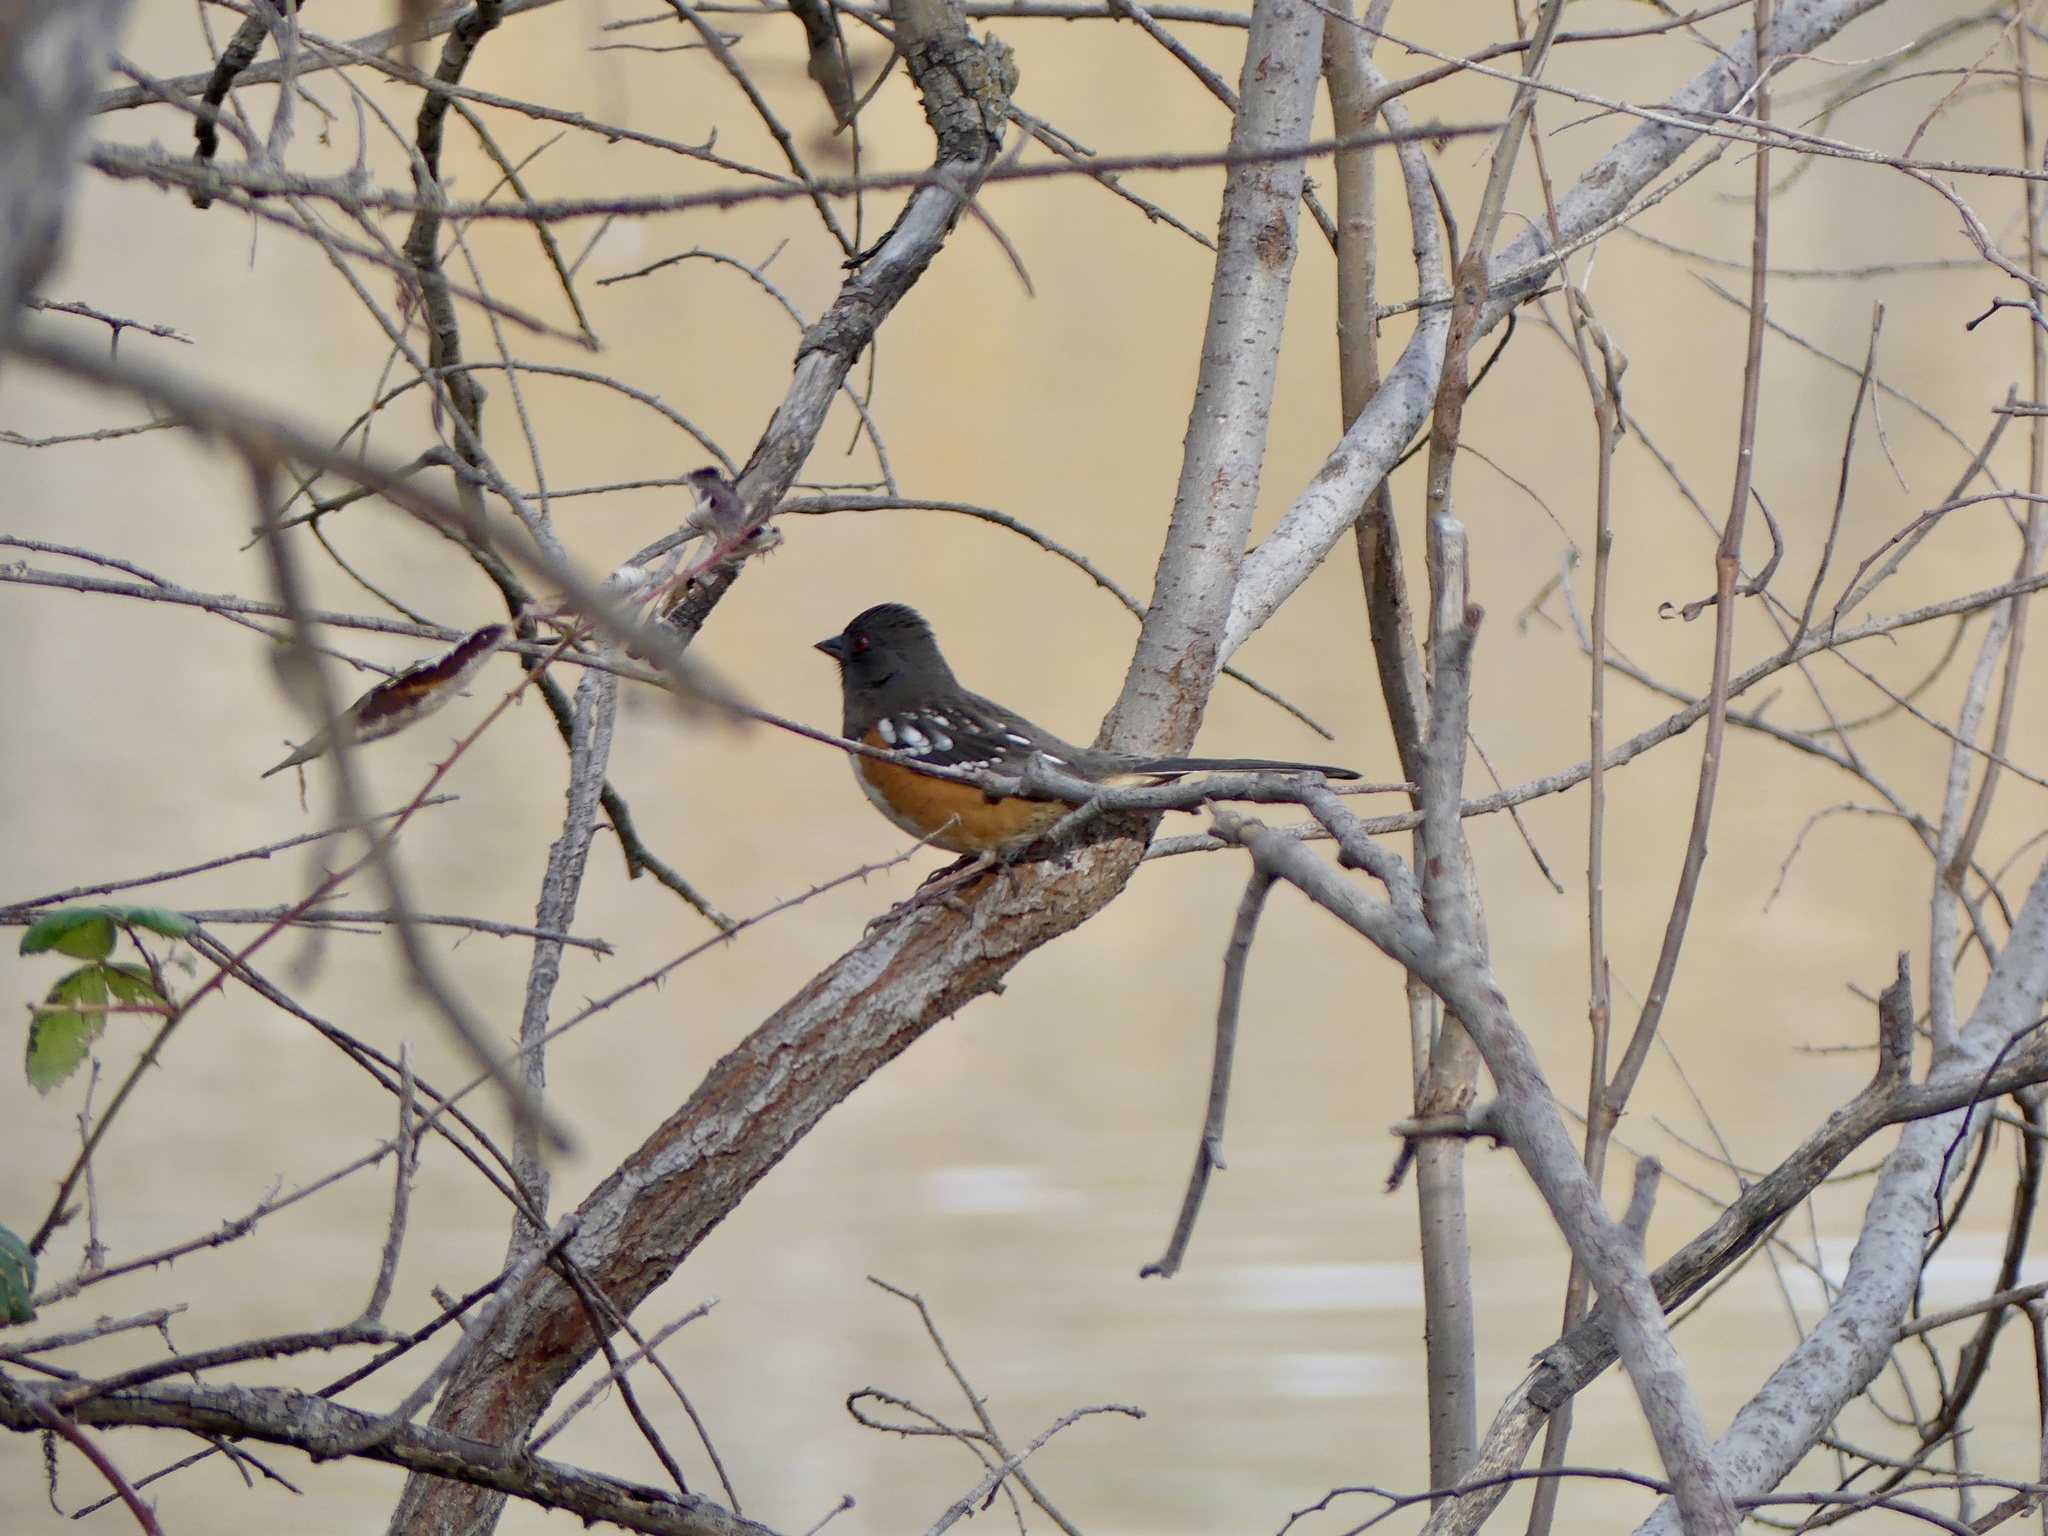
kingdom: Animalia
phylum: Chordata
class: Aves
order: Passeriformes
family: Passerellidae
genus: Pipilo
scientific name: Pipilo maculatus
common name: Spotted towhee
